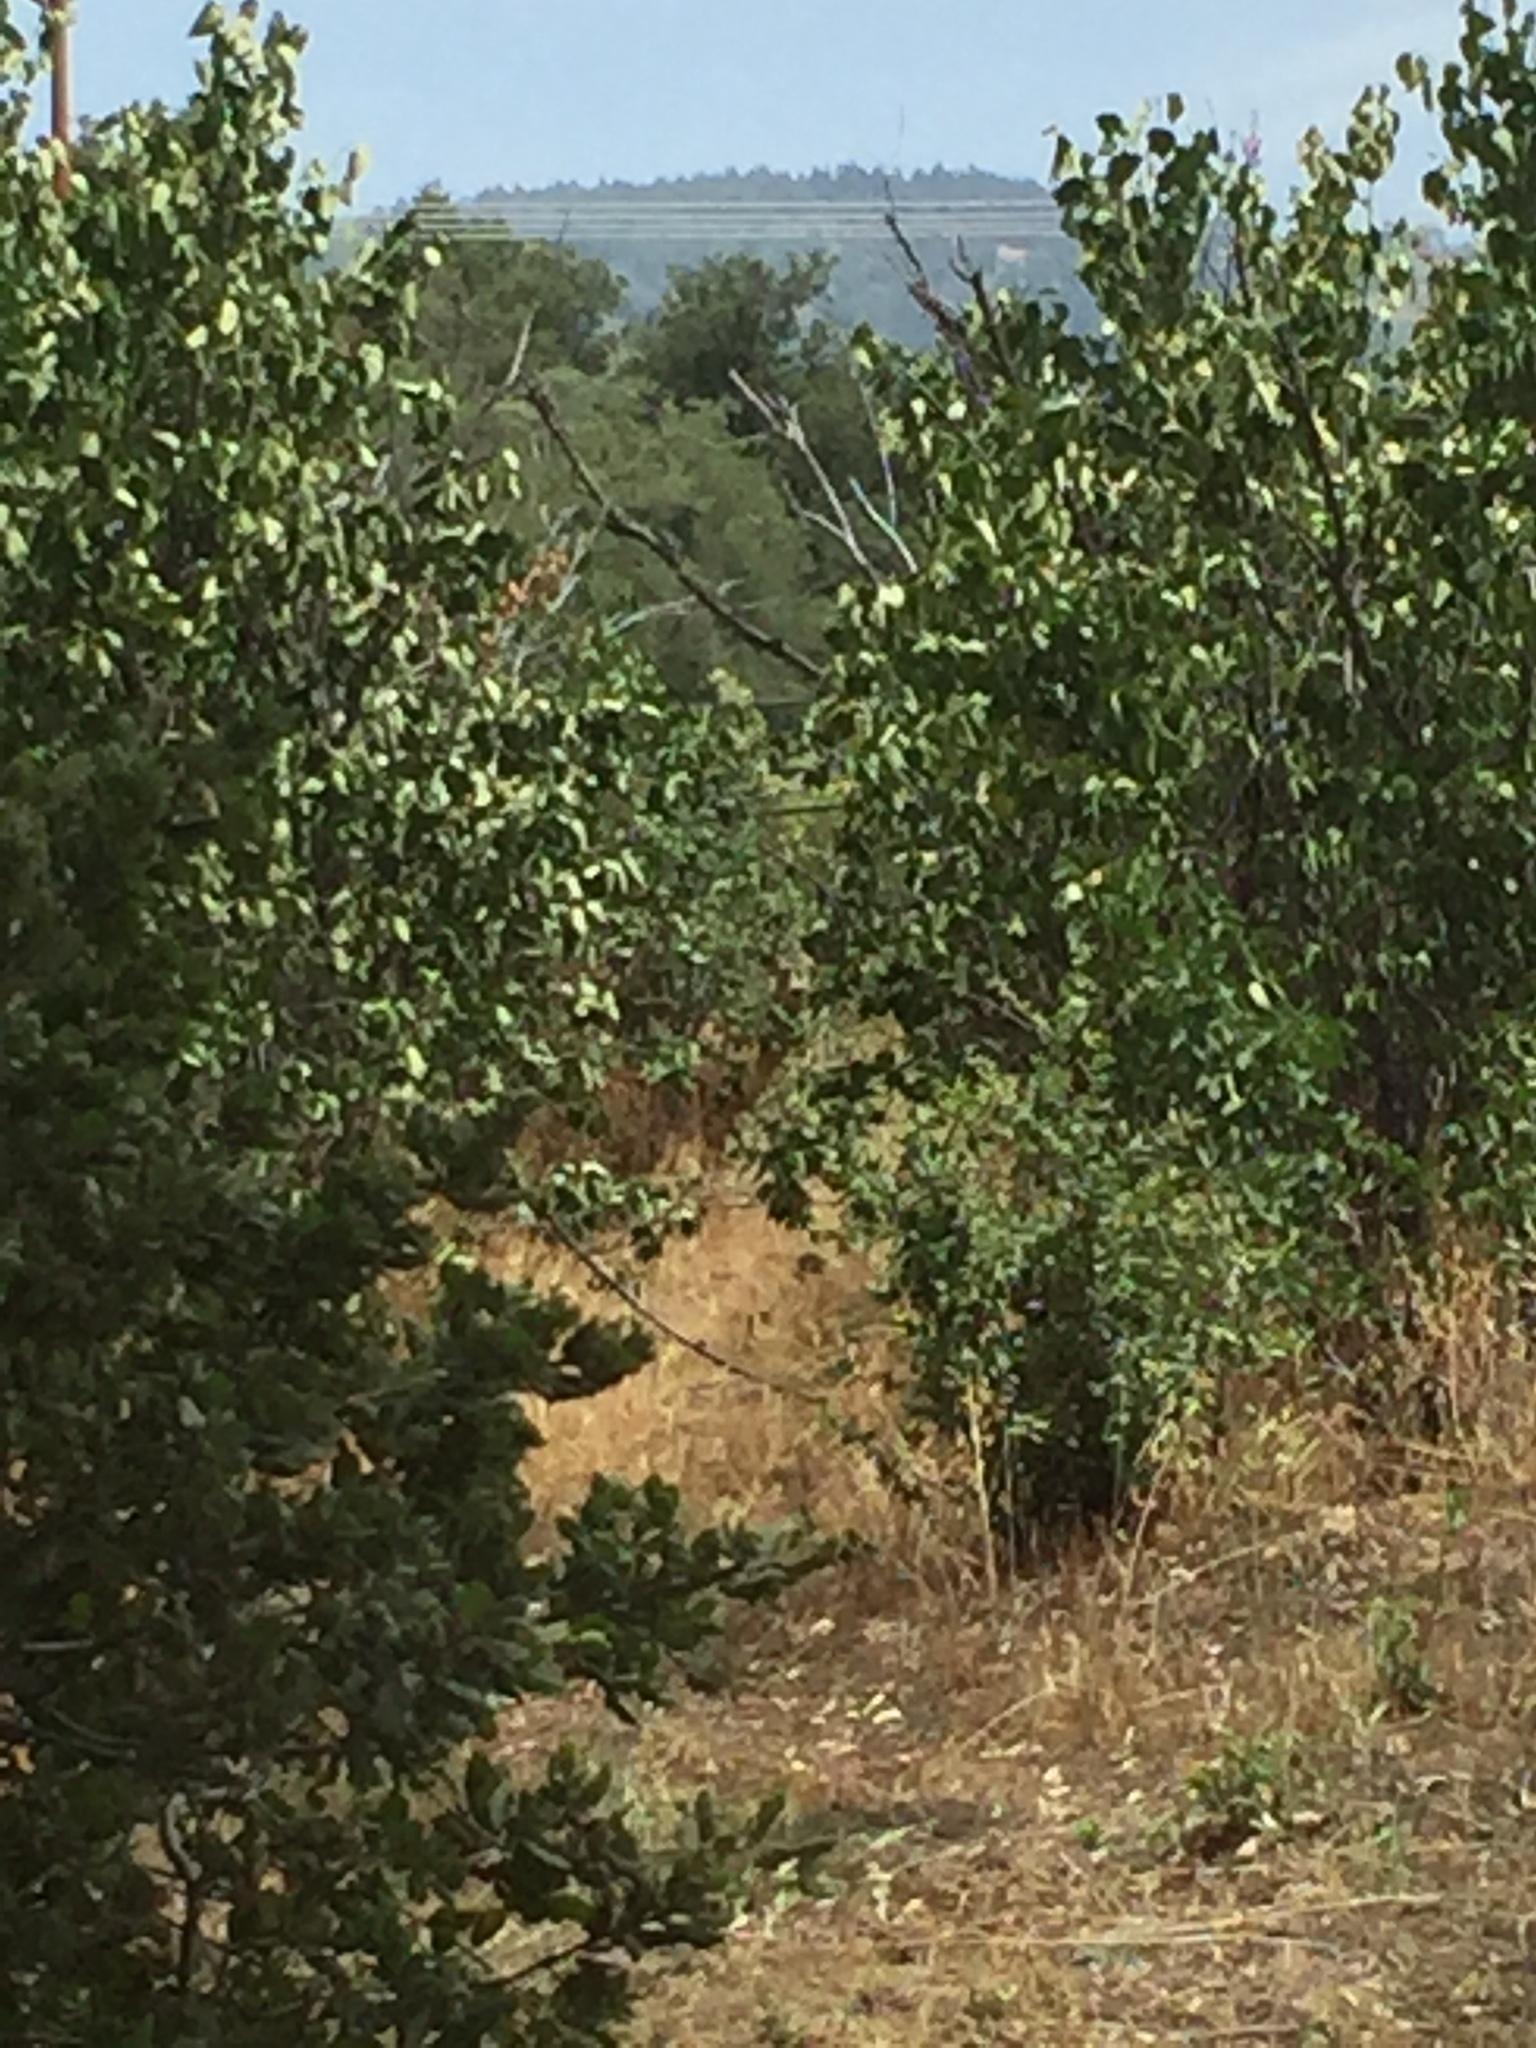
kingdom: Animalia
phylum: Chordata
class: Mammalia
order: Artiodactyla
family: Cervidae
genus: Odocoileus
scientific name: Odocoileus hemionus
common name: Mule deer
